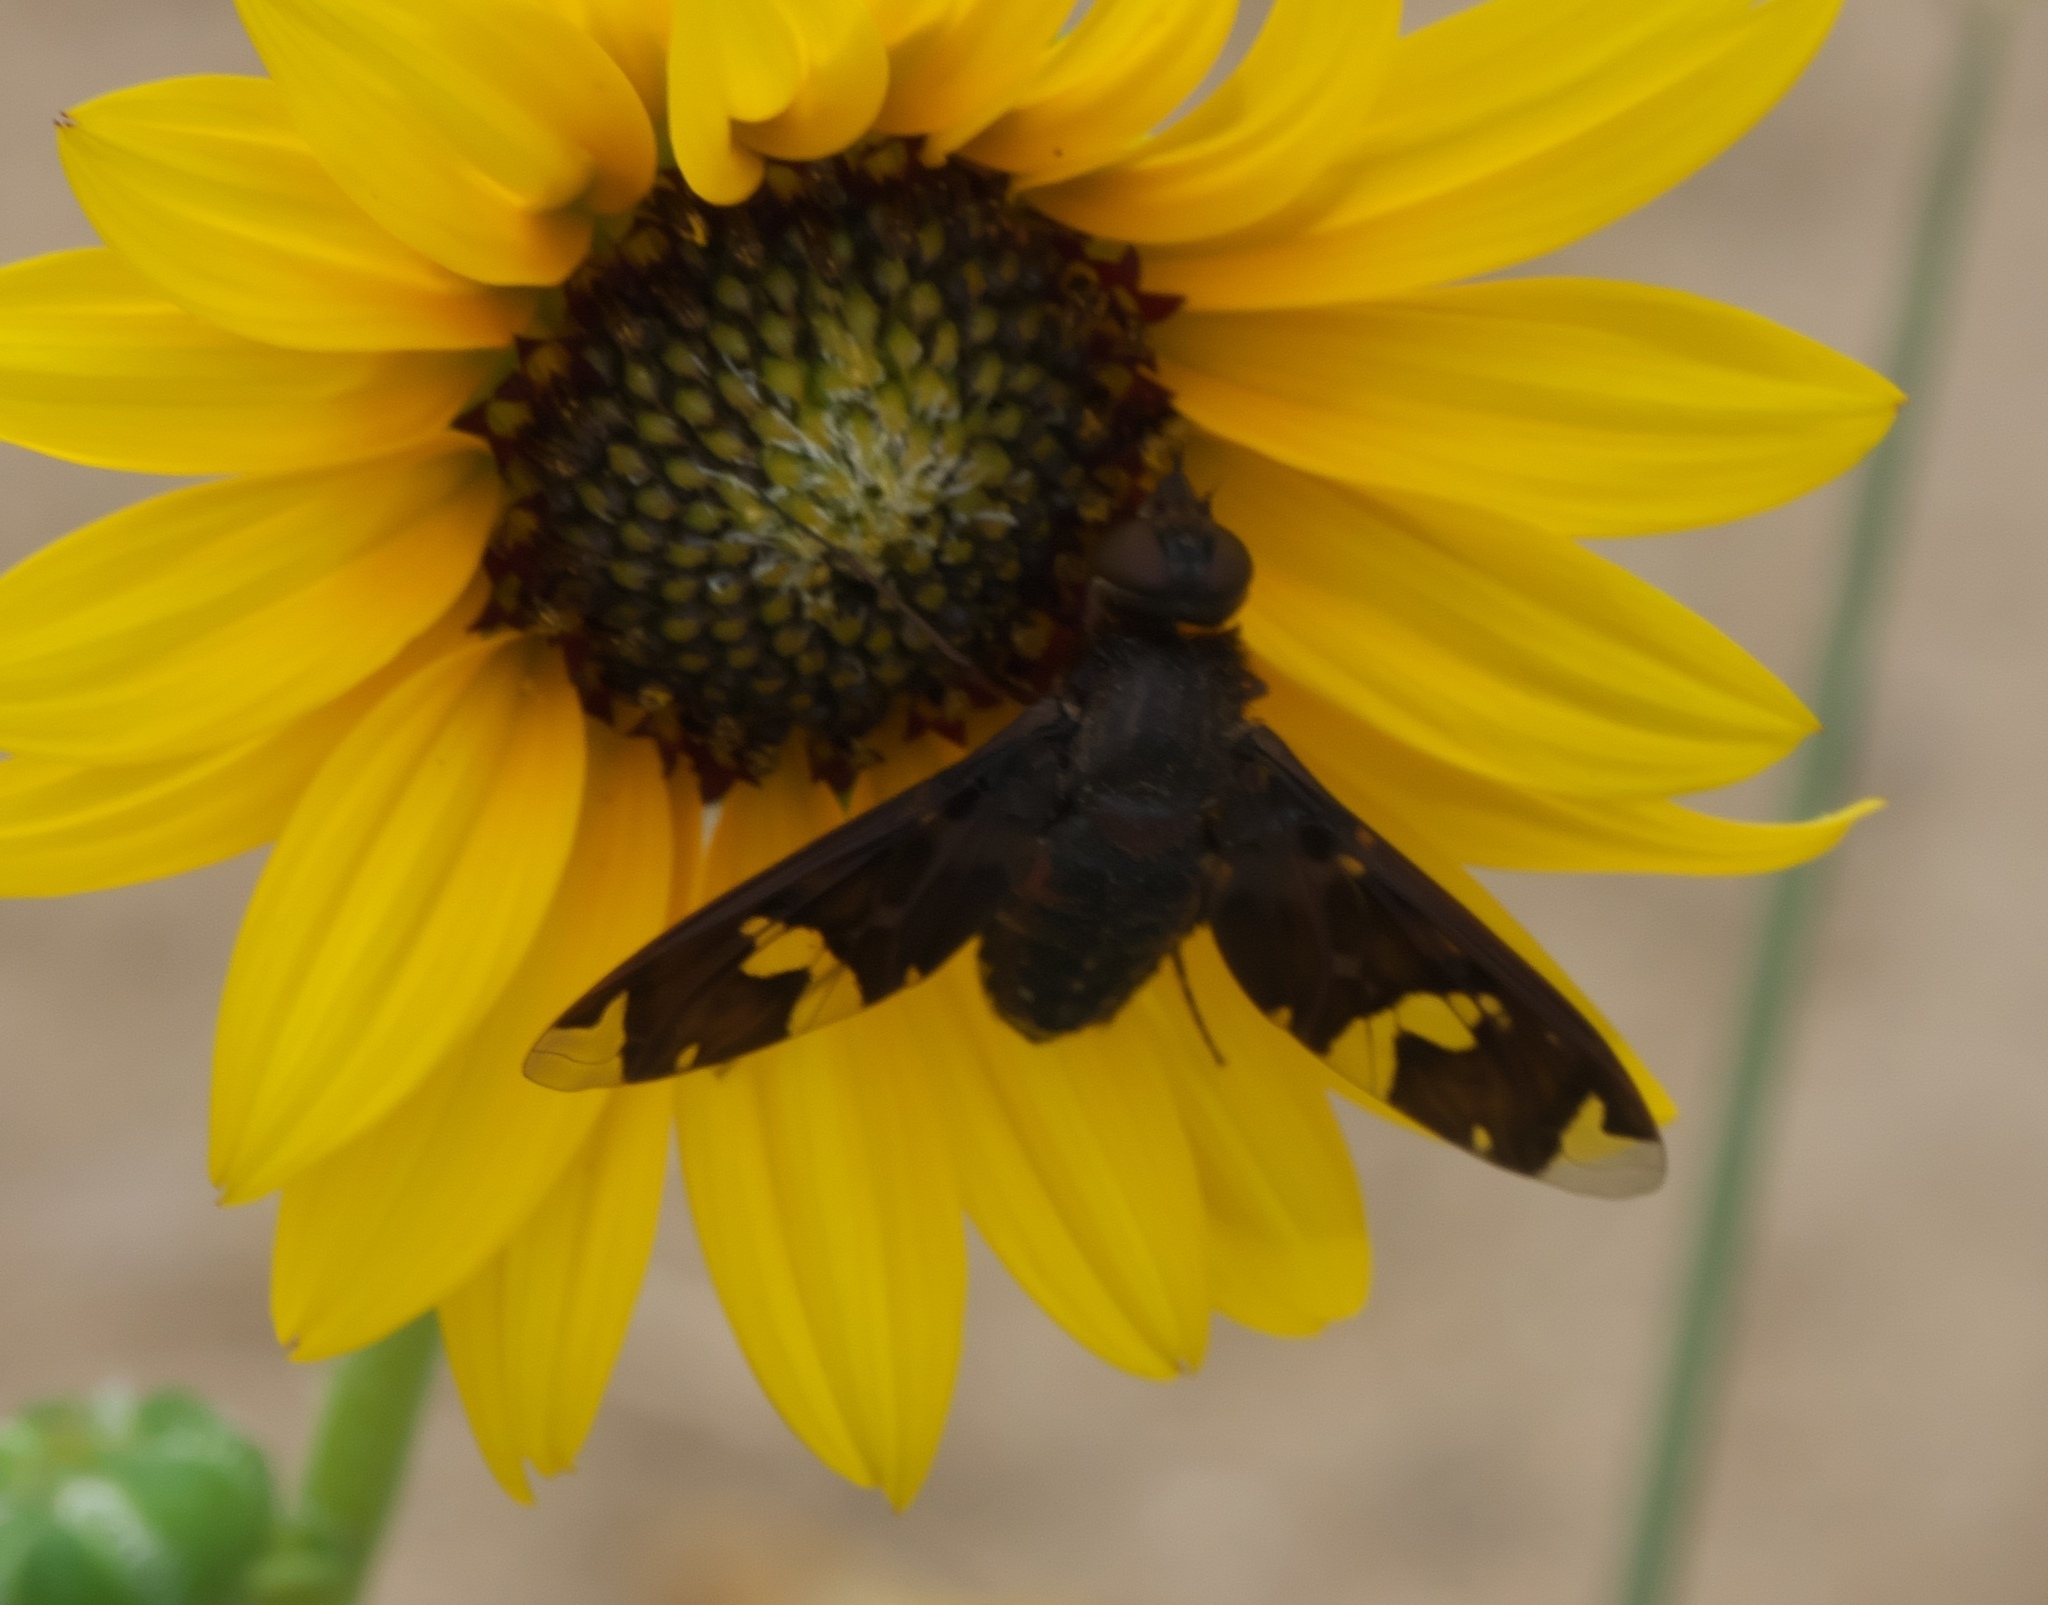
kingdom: Animalia
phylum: Arthropoda
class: Insecta
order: Diptera
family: Bombyliidae
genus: Exoprosopa
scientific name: Exoprosopa decora
